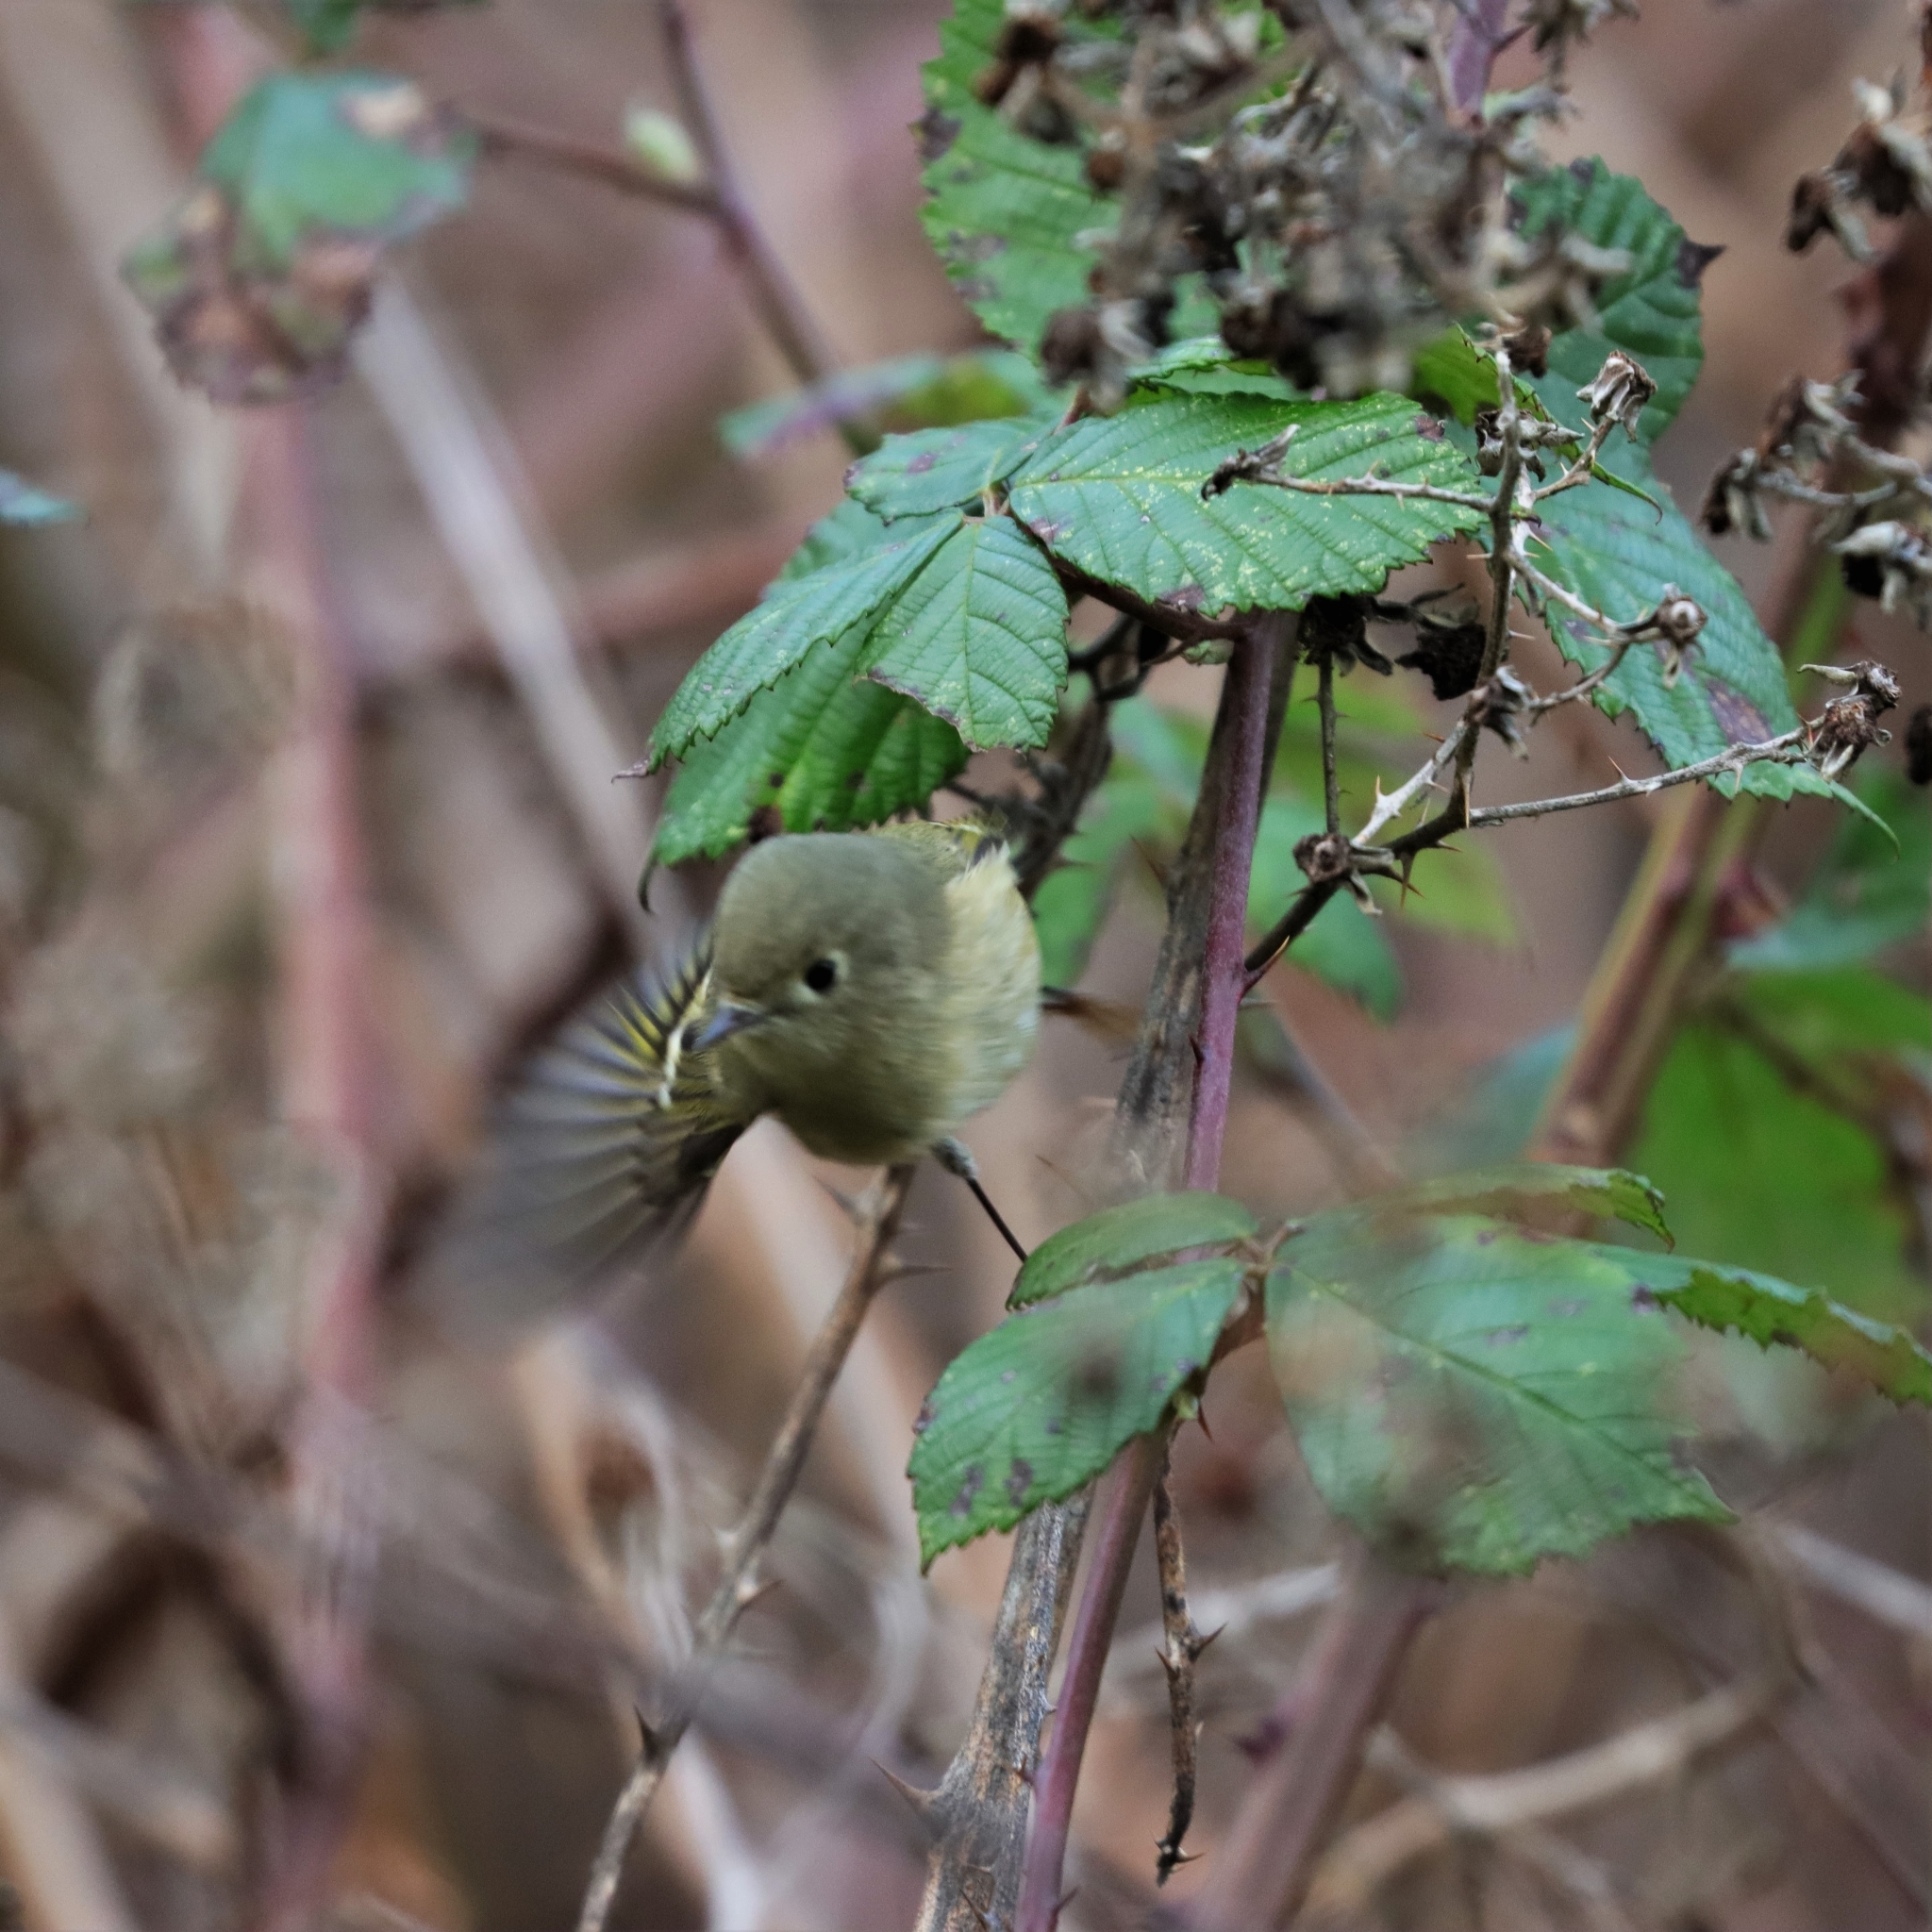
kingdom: Animalia
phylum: Chordata
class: Aves
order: Passeriformes
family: Regulidae
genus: Regulus
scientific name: Regulus calendula
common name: Ruby-crowned kinglet
